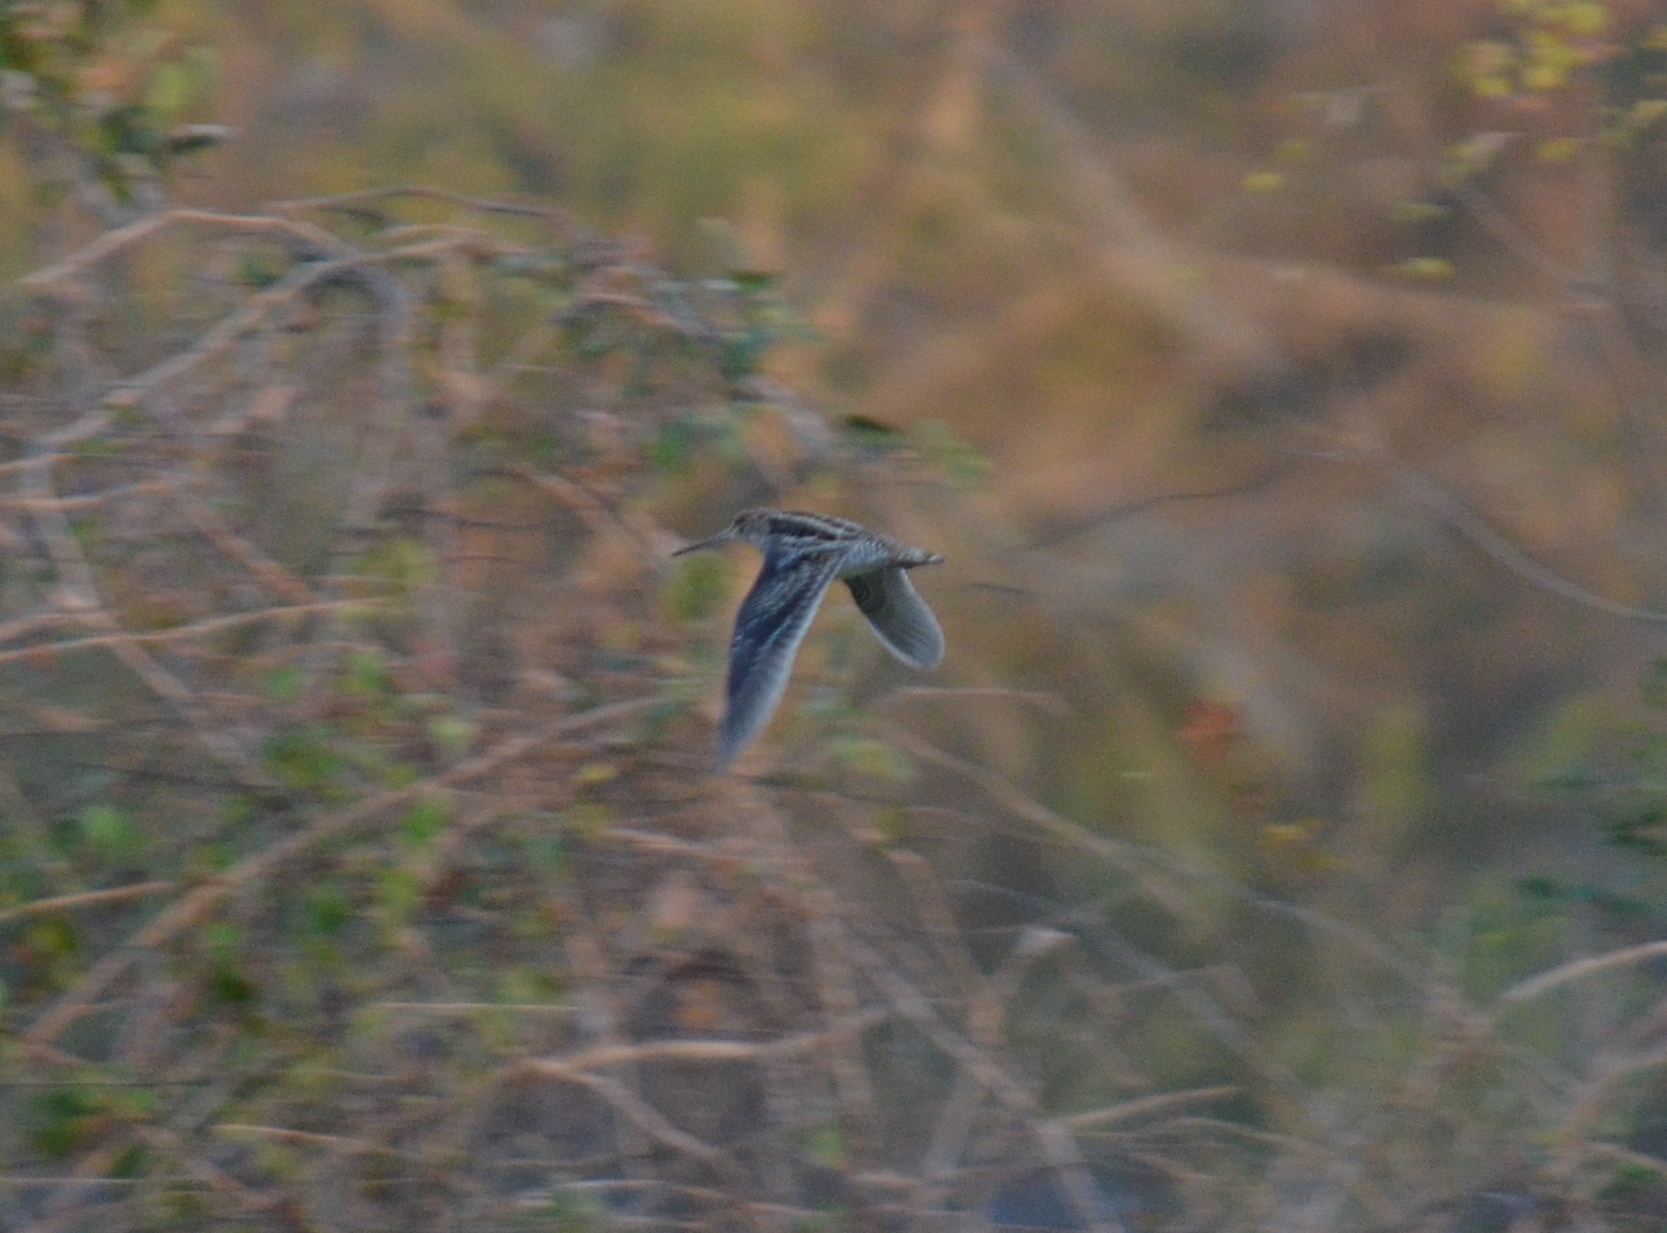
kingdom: Animalia
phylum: Chordata
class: Aves
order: Charadriiformes
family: Scolopacidae
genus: Gallinago
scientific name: Gallinago delicata
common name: Wilson's snipe
